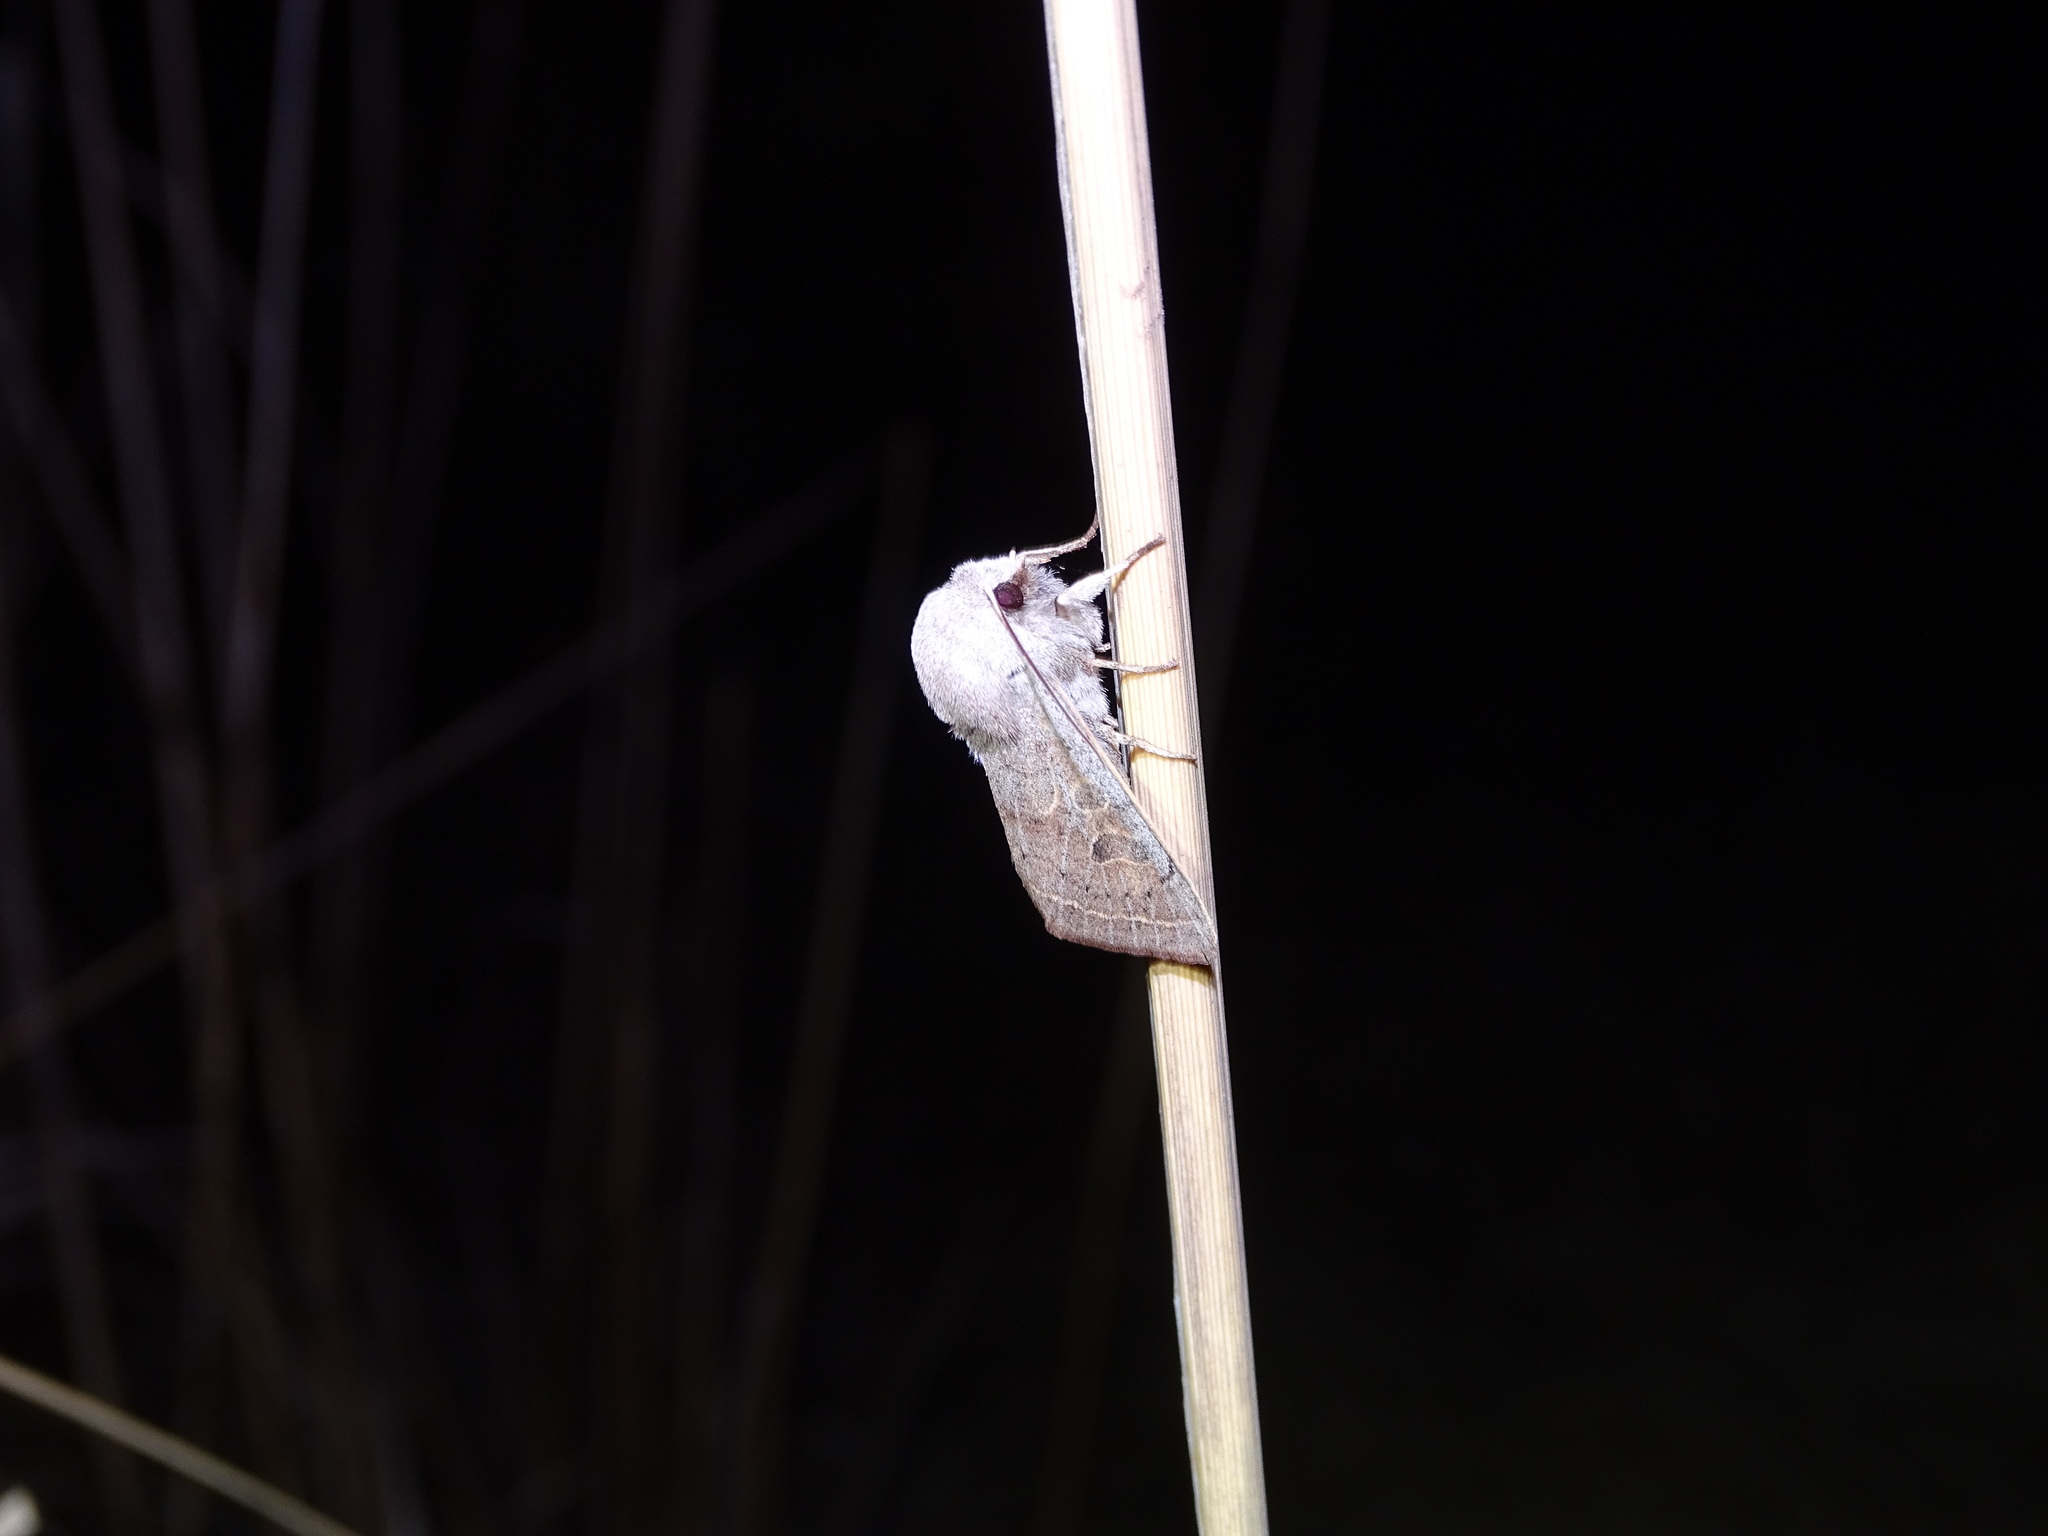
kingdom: Animalia
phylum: Arthropoda
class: Insecta
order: Lepidoptera
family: Noctuidae
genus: Orthosia
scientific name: Orthosia gracilis
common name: Powdered quaker
